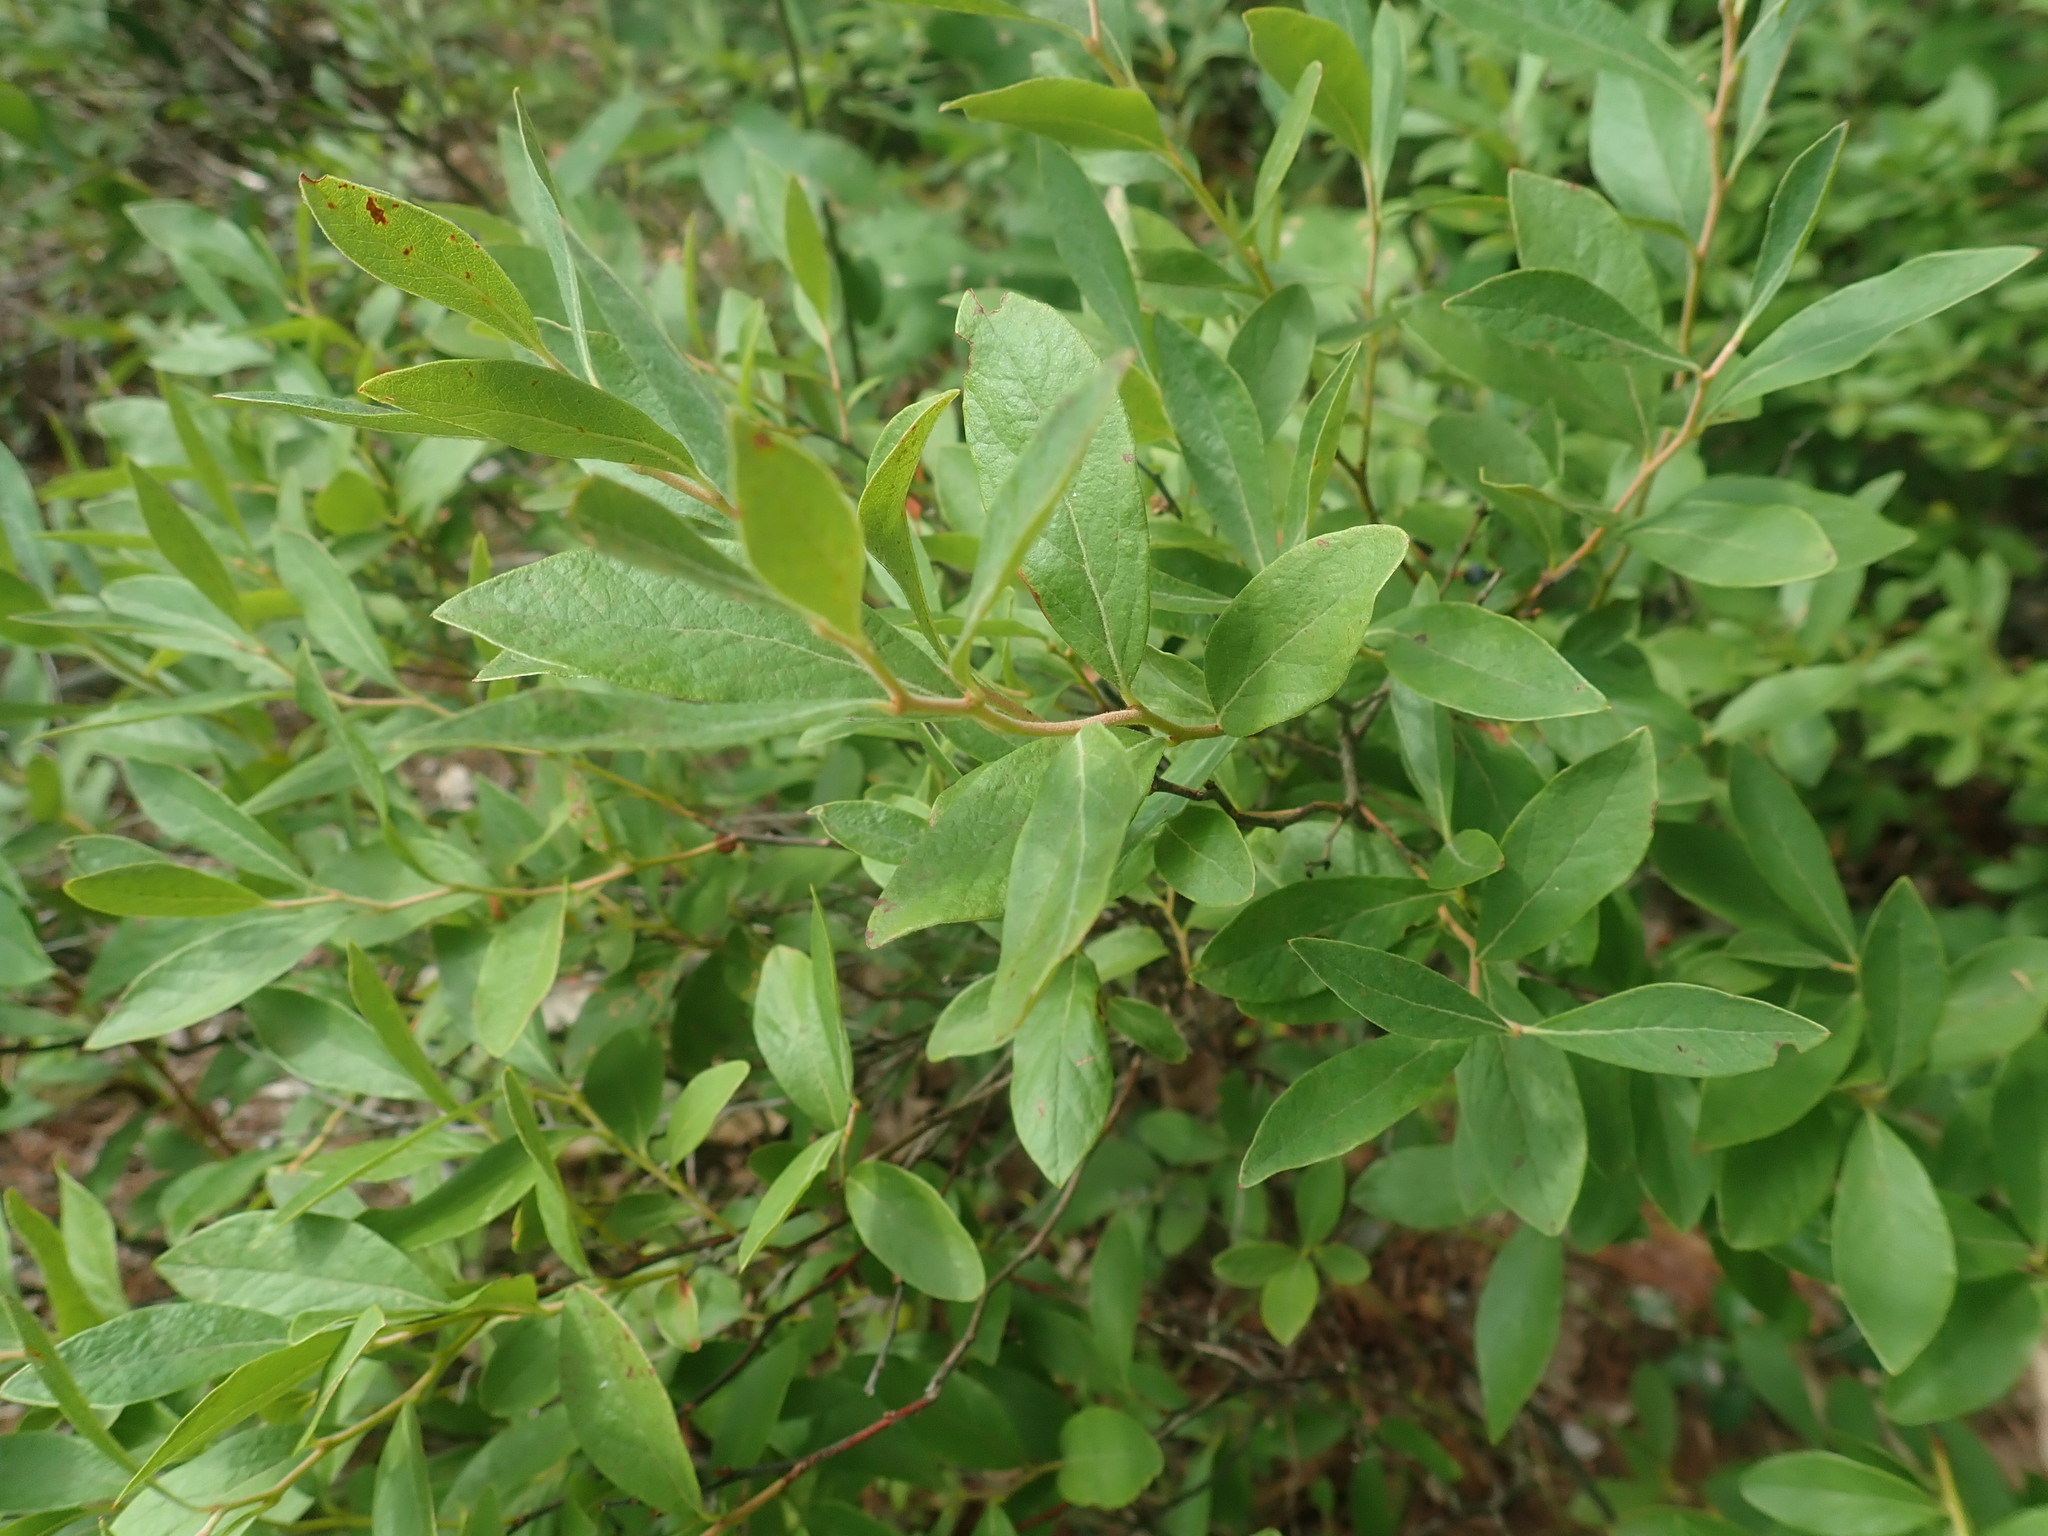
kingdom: Plantae
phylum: Tracheophyta
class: Magnoliopsida
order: Ericales
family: Ericaceae
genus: Gaylussacia
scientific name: Gaylussacia baccata
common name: Black huckleberry
